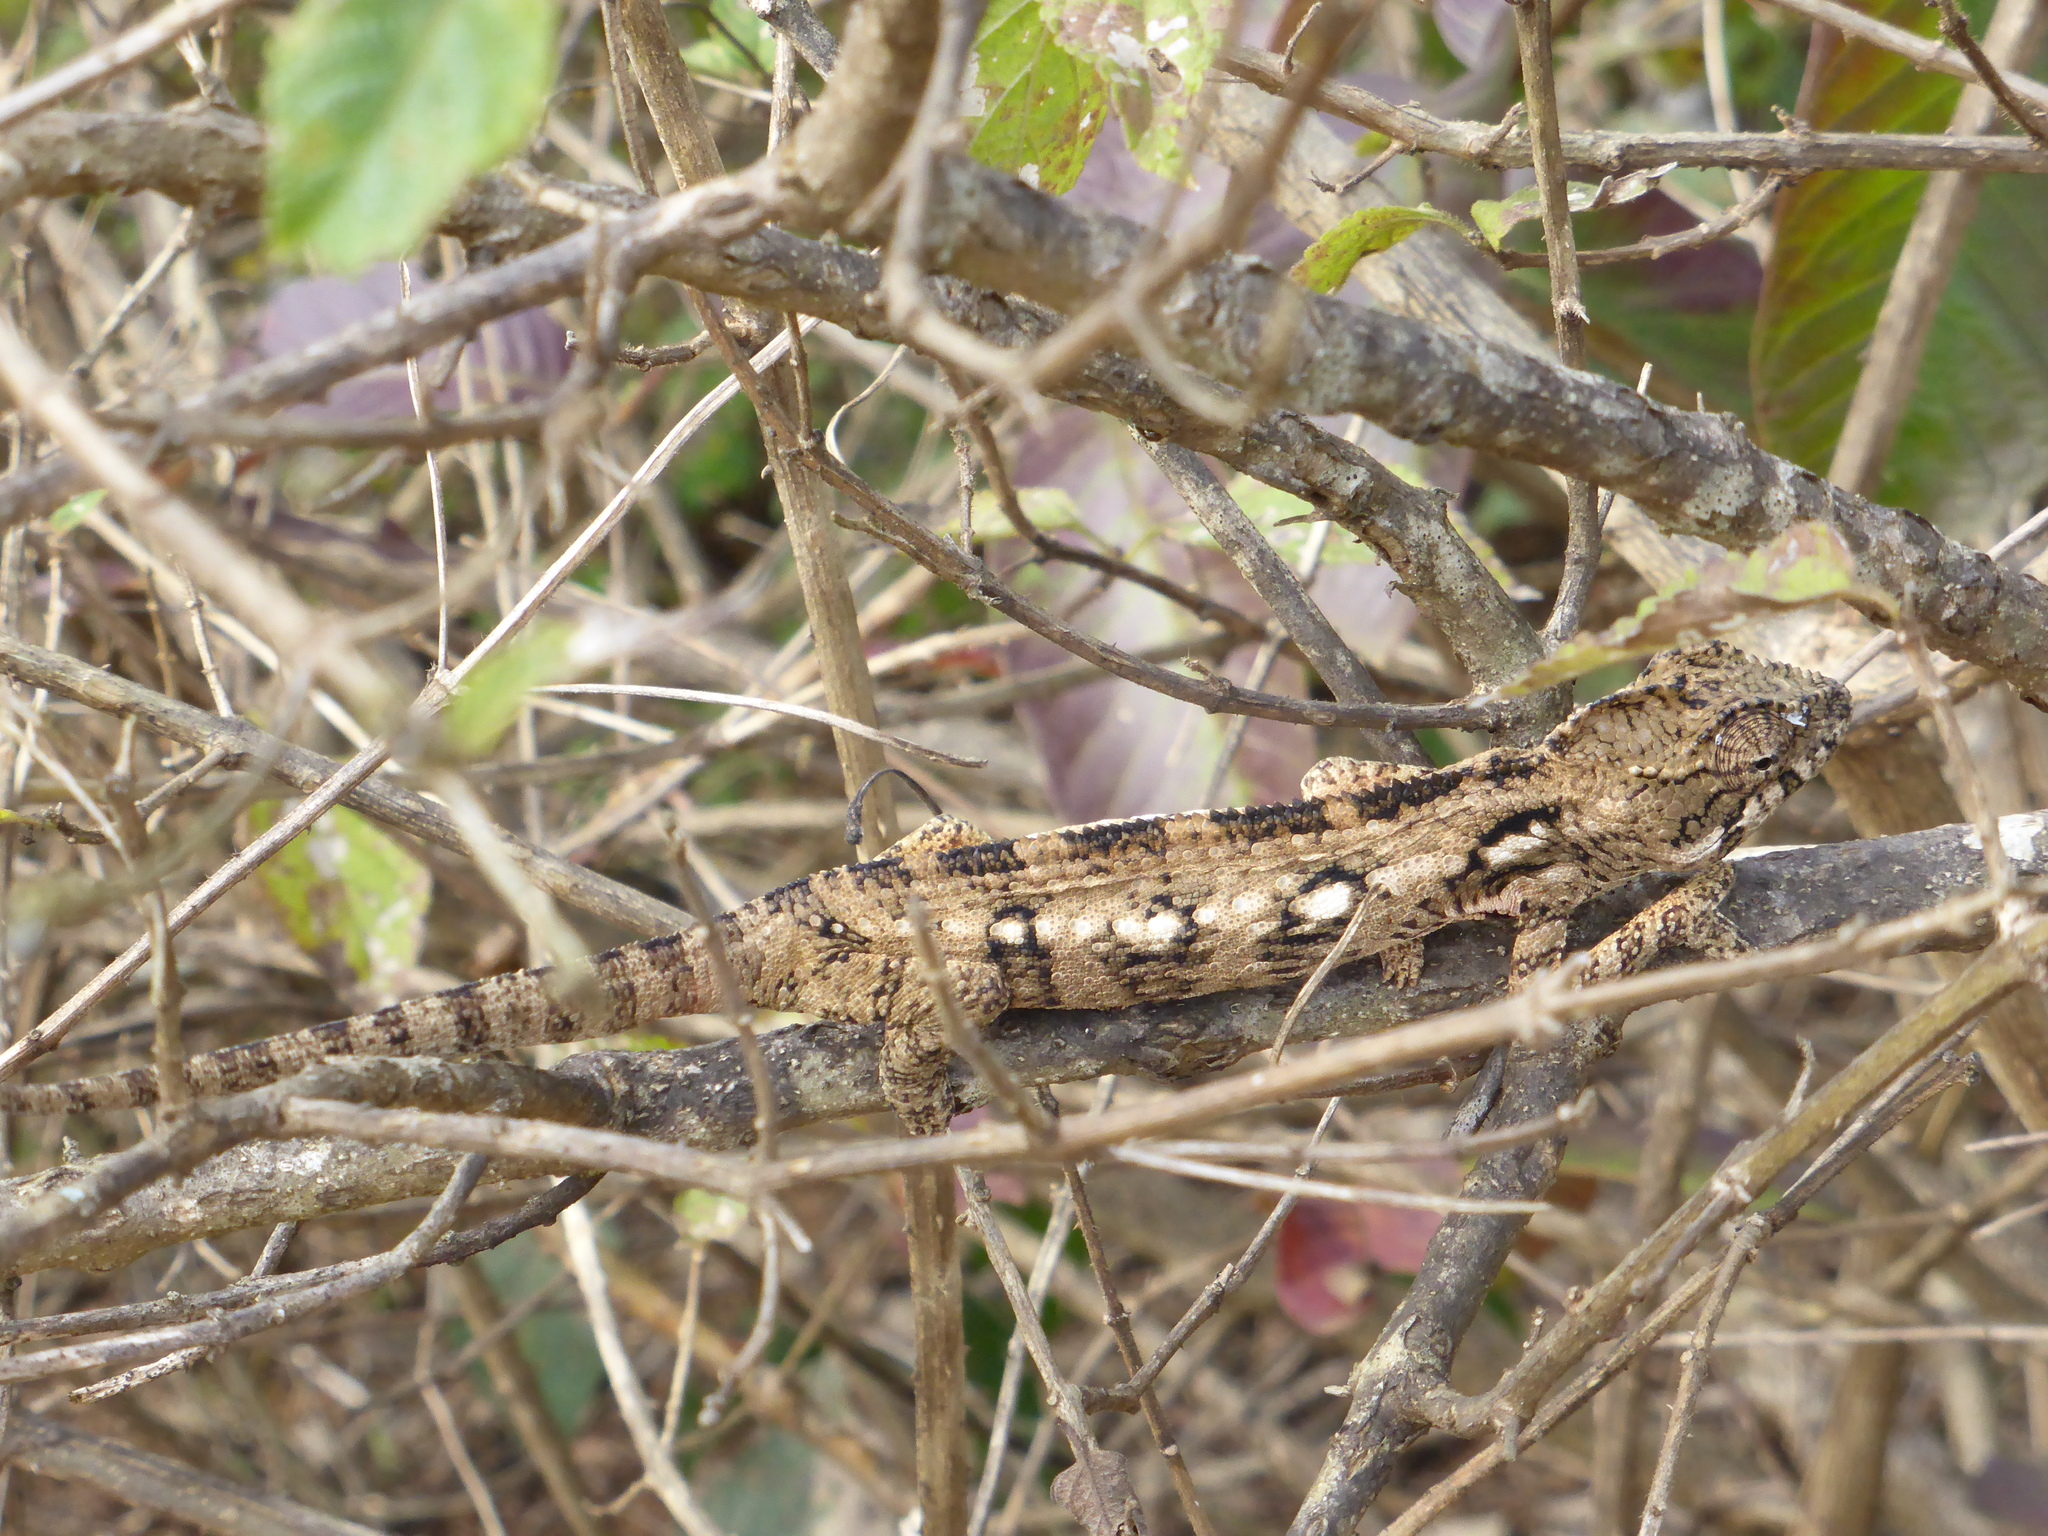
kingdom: Animalia
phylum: Chordata
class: Squamata
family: Chamaeleonidae
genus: Furcifer
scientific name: Furcifer oustaleti
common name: Oustalet's chameleon
